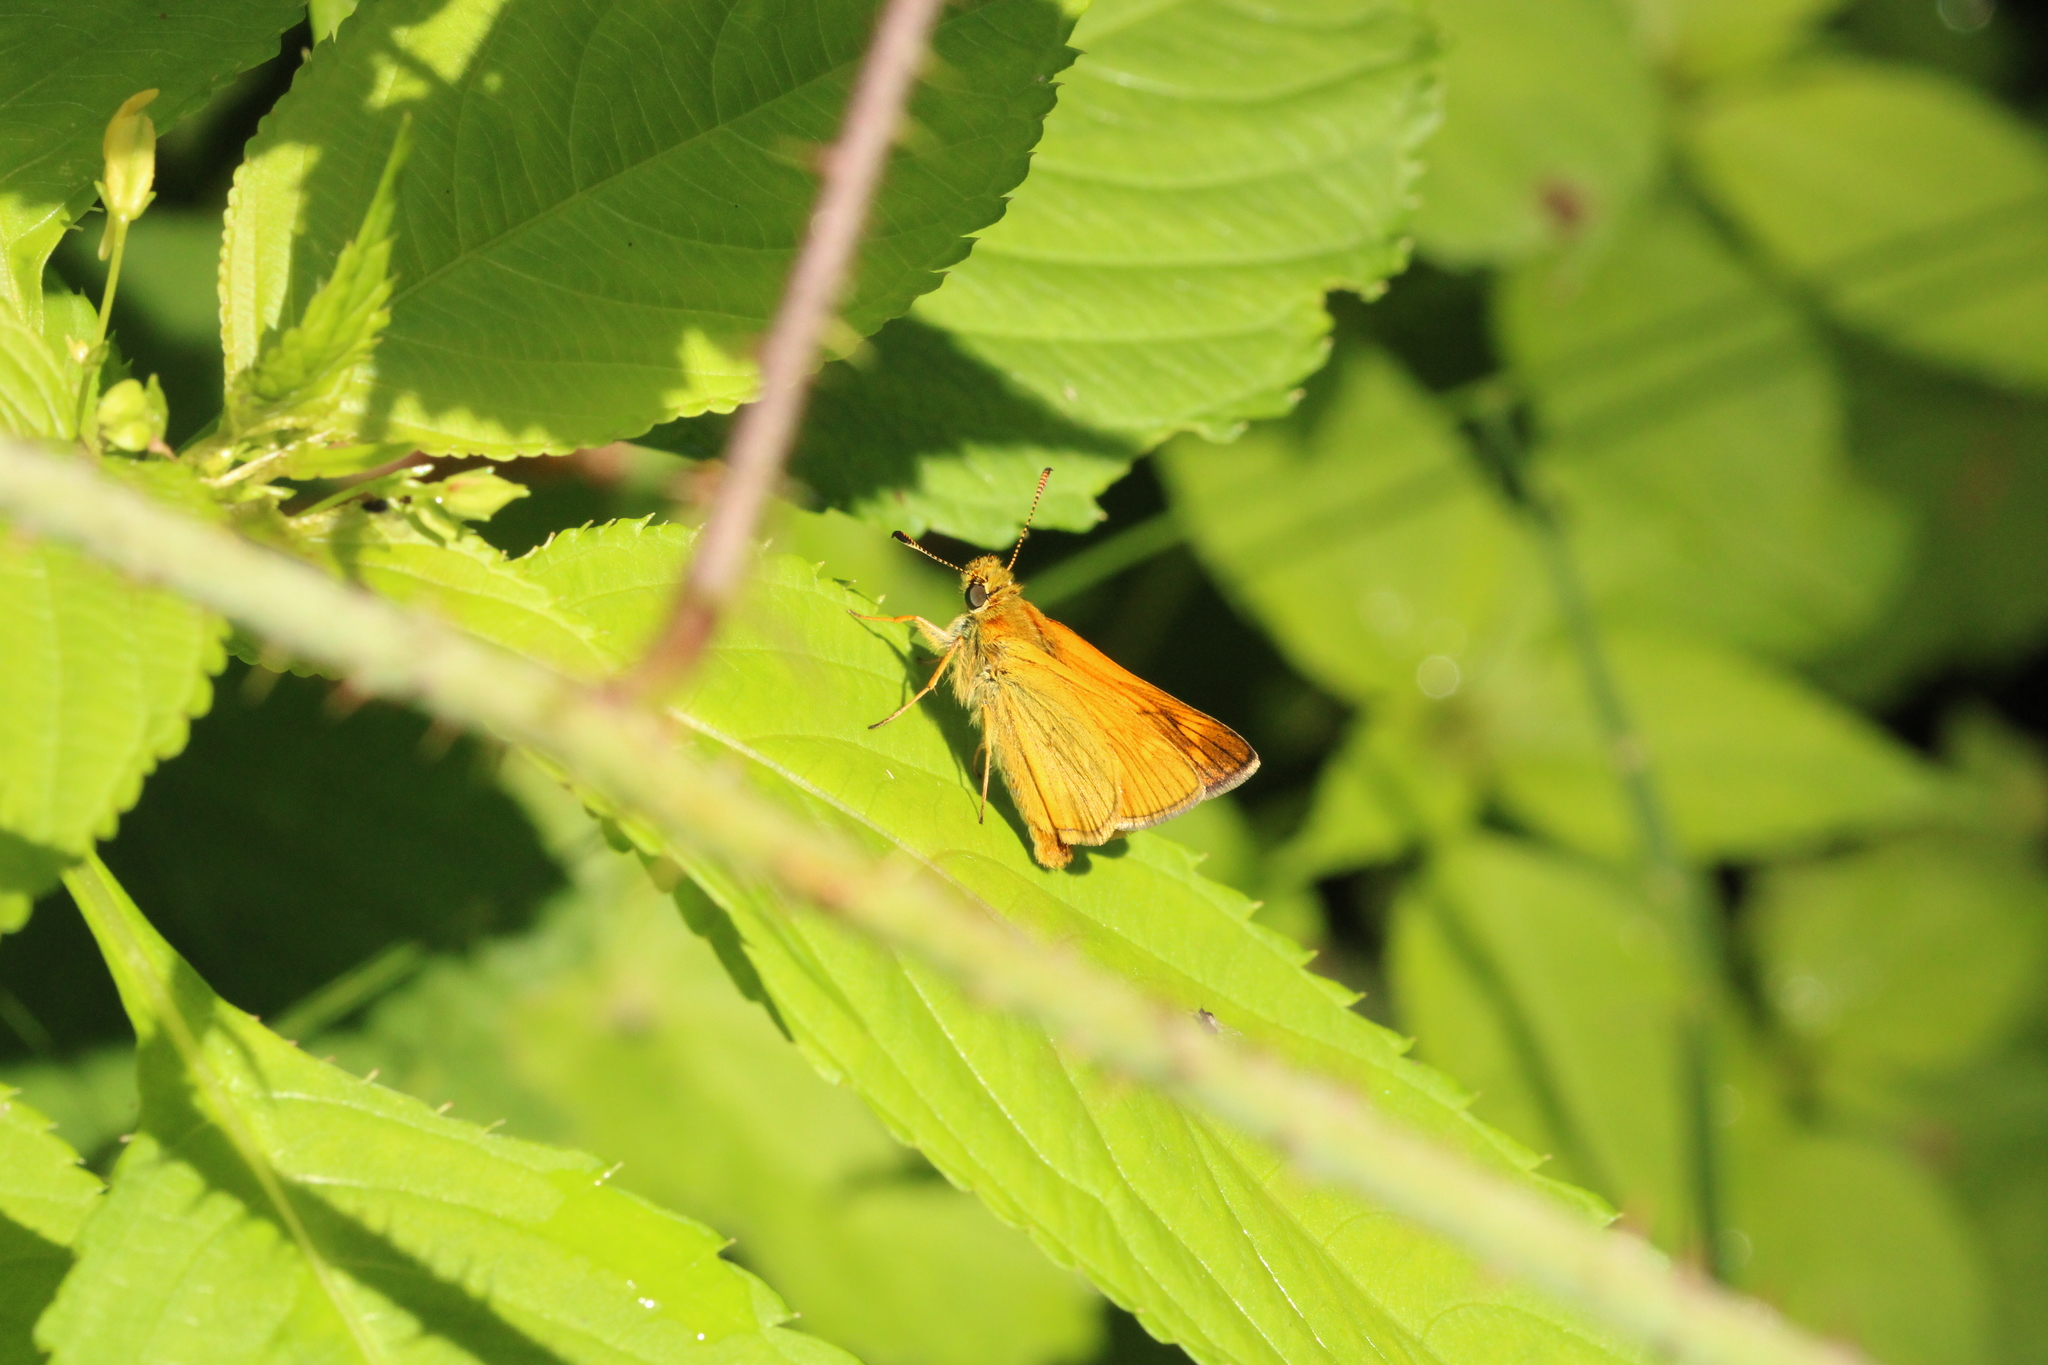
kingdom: Animalia
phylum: Arthropoda
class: Insecta
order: Lepidoptera
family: Hesperiidae
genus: Ochlodes
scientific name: Ochlodes venata
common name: Large skipper
